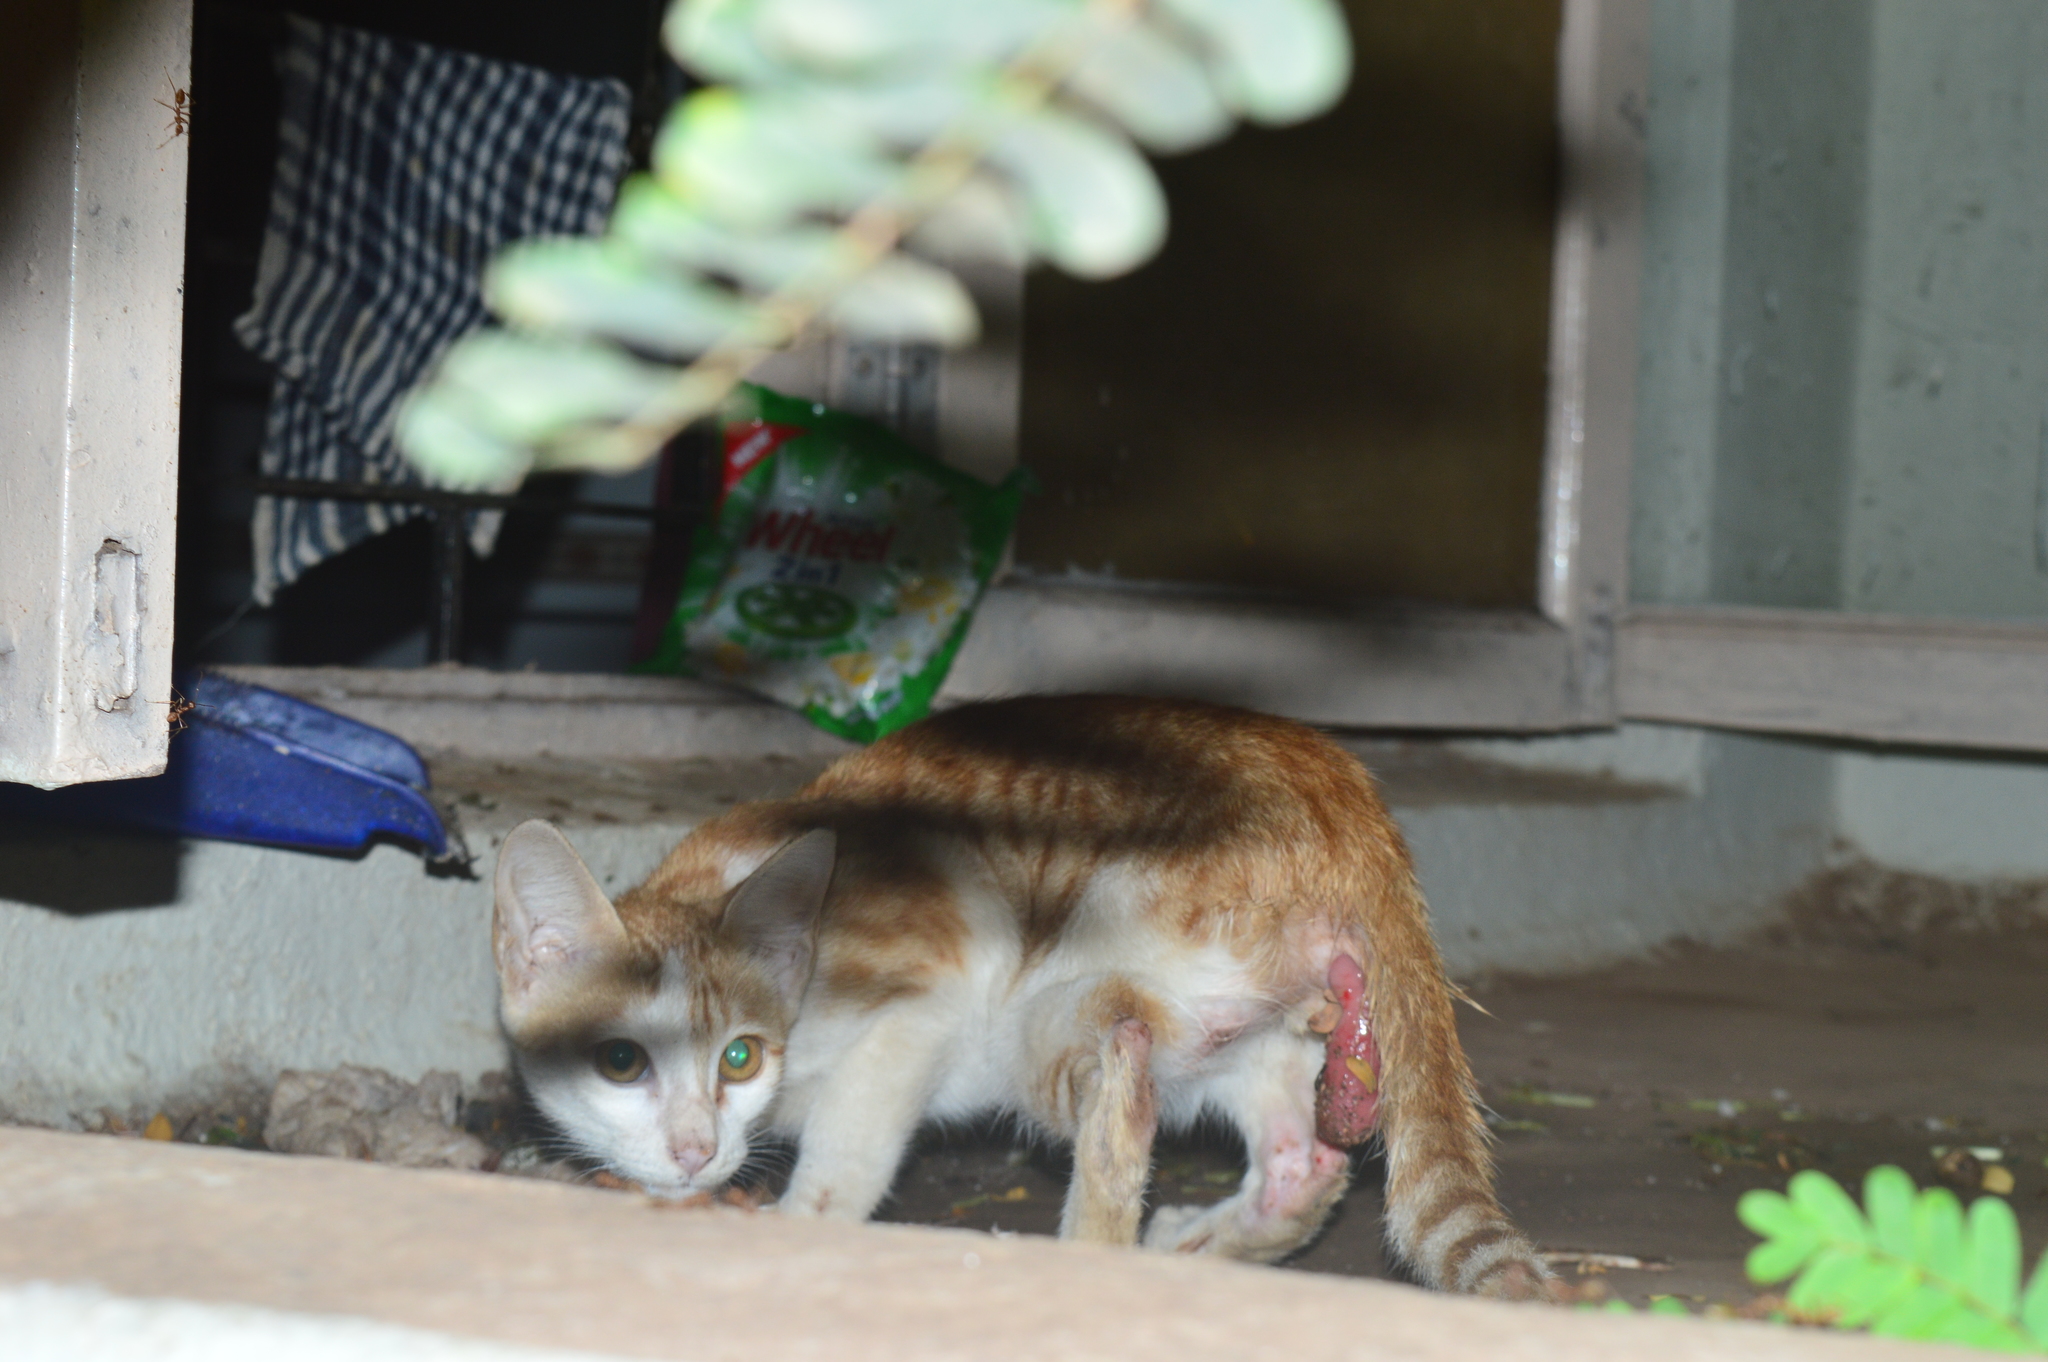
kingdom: Animalia
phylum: Chordata
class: Mammalia
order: Carnivora
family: Felidae
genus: Felis
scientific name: Felis catus
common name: Domestic cat
